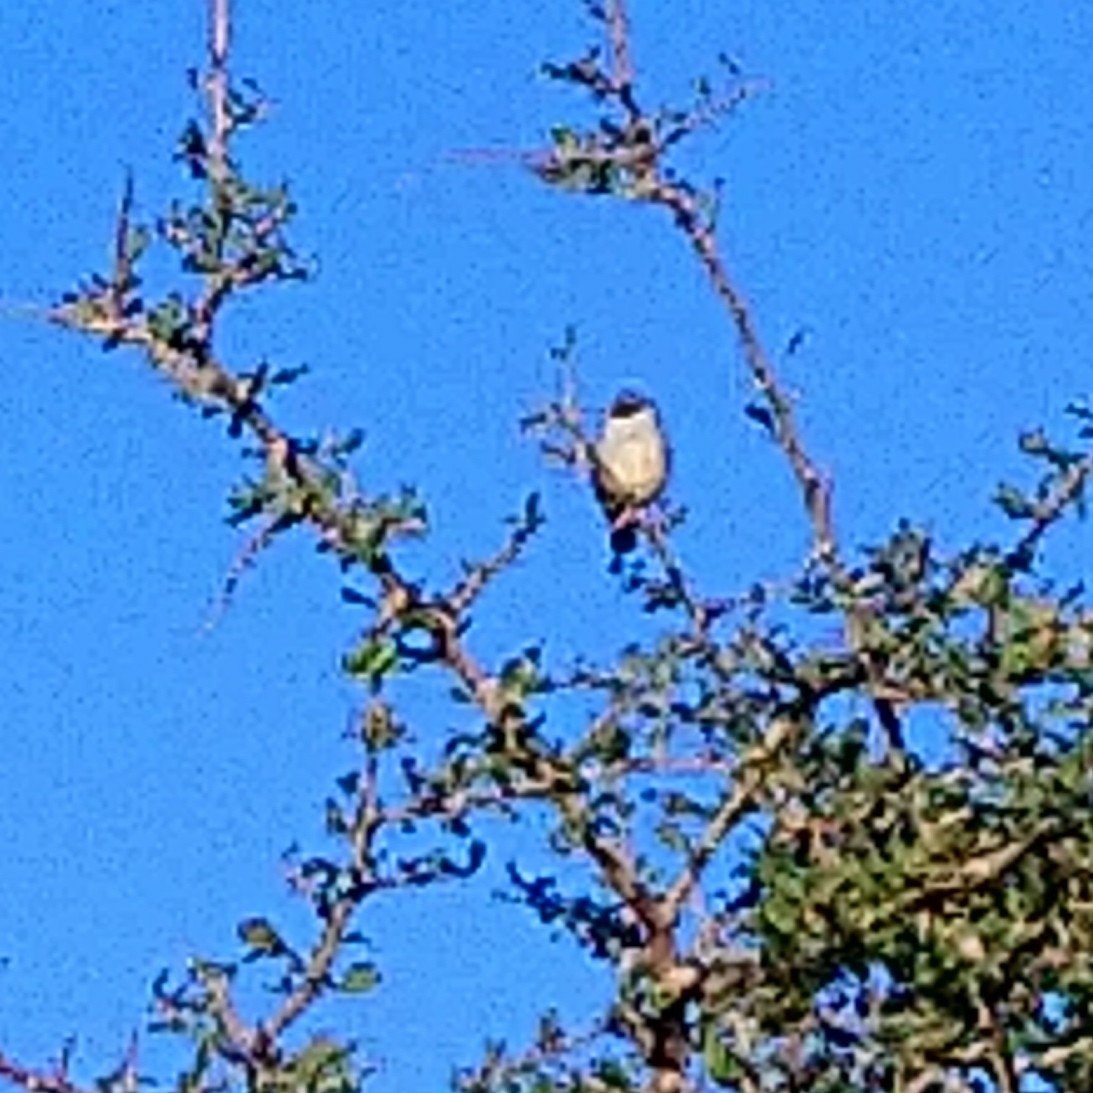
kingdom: Animalia
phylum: Chordata
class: Aves
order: Passeriformes
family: Estrildidae
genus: Coccopygia
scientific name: Coccopygia melanotis
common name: Swee waxbill
